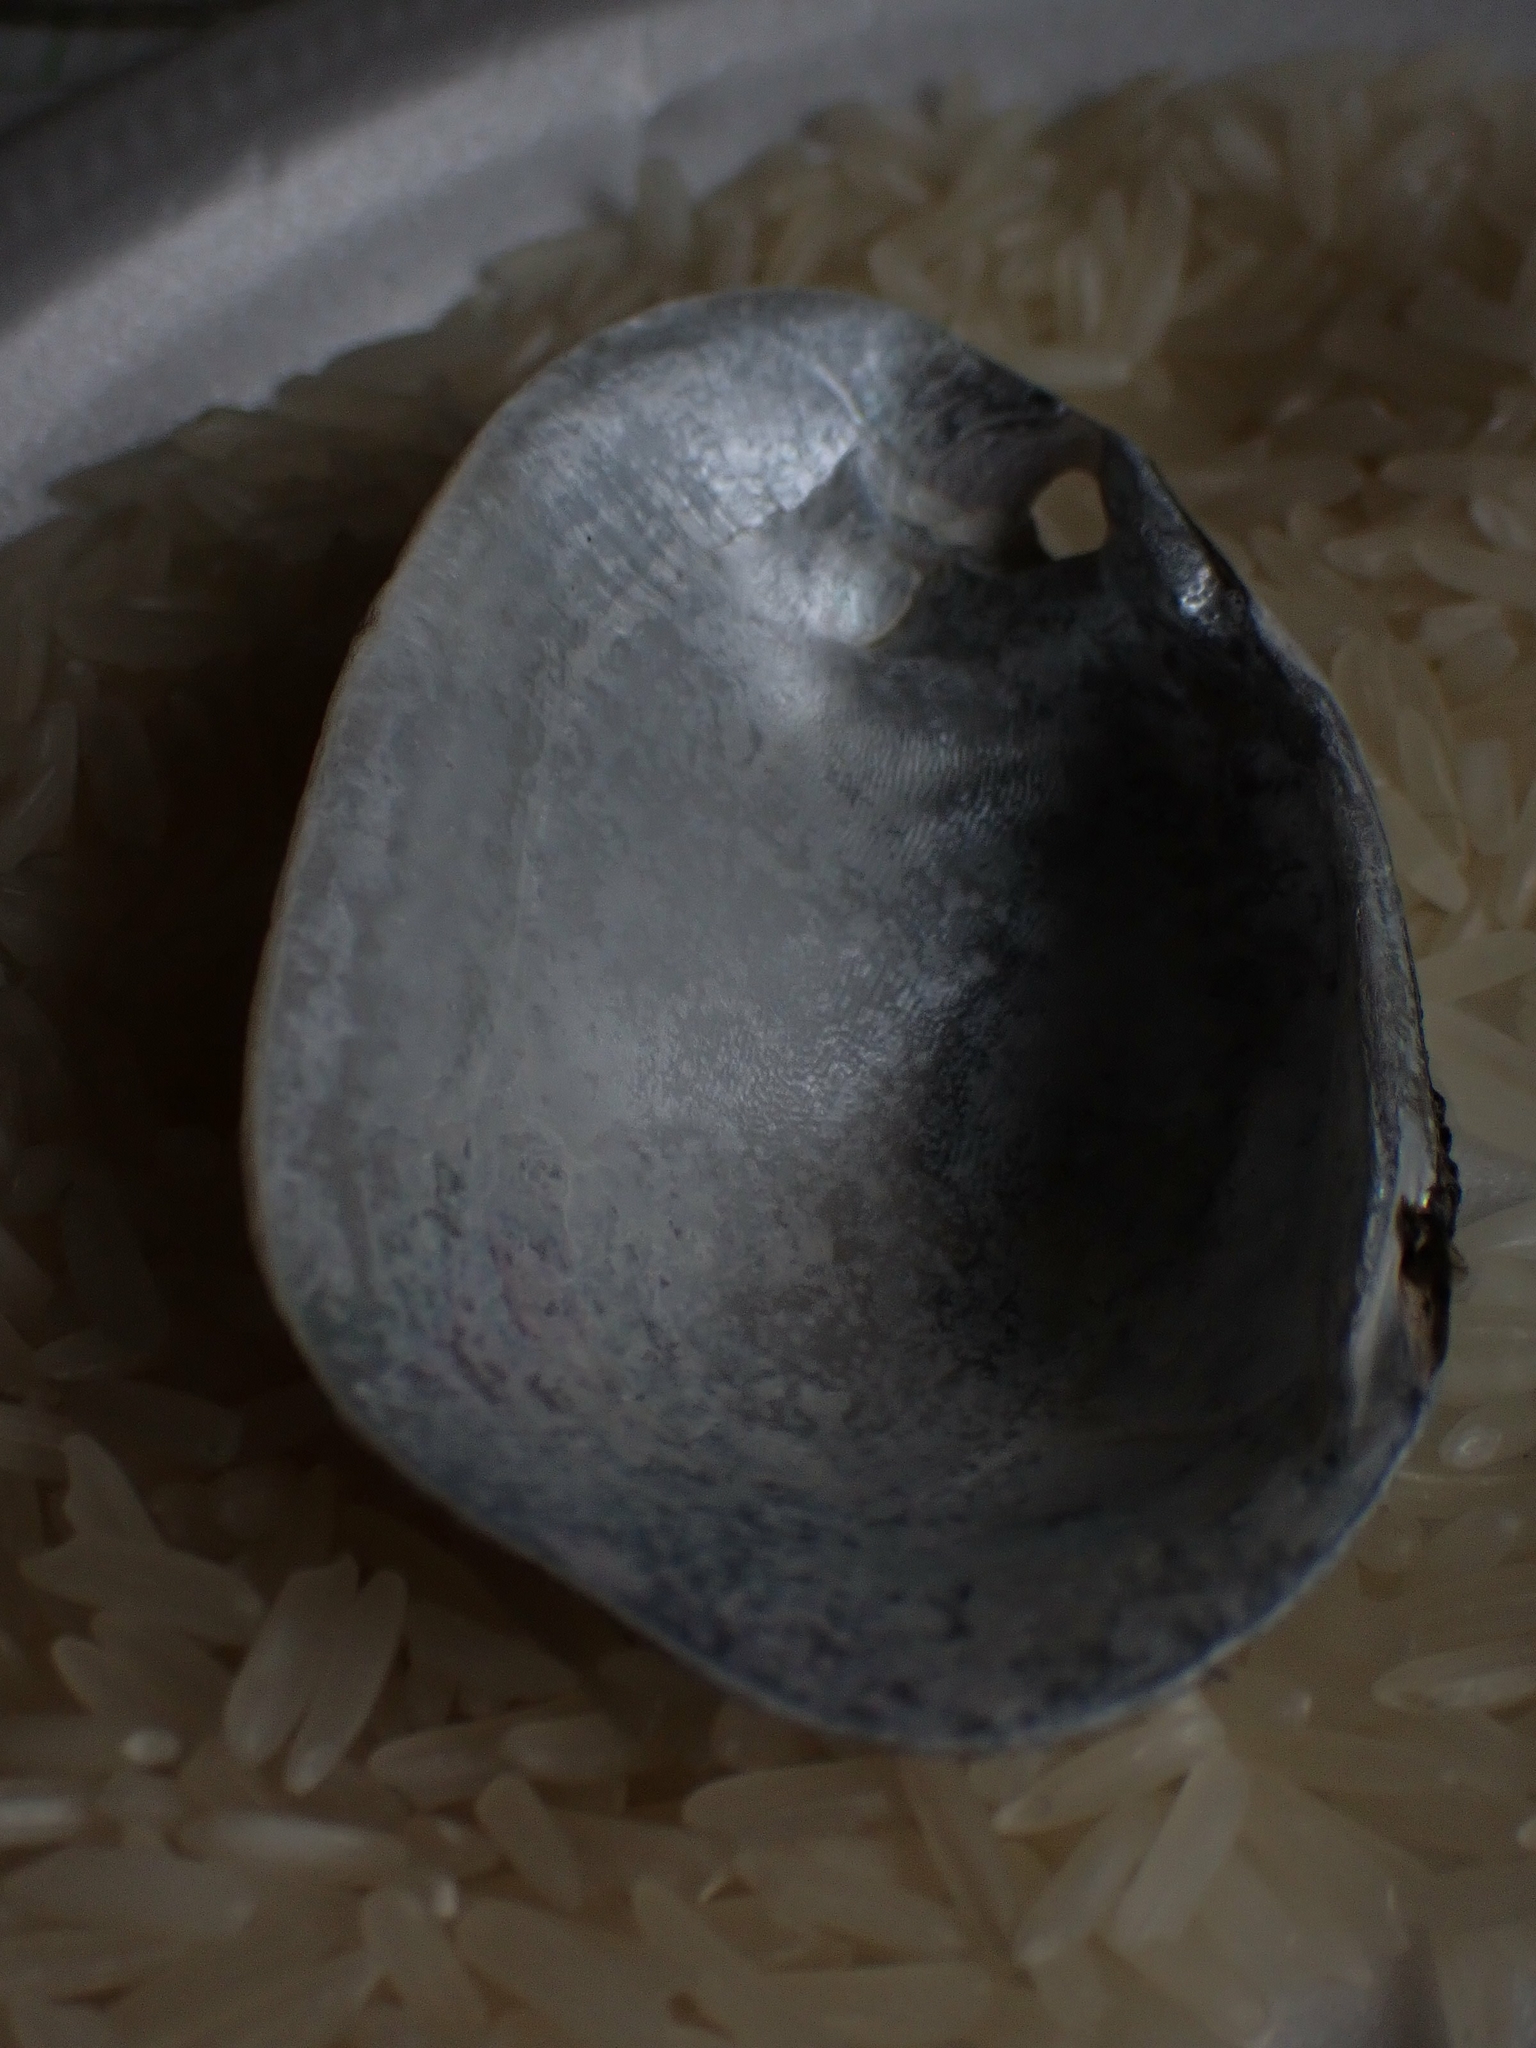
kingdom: Animalia
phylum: Mollusca
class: Bivalvia
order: Unionida
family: Unionidae
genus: Lampsilis
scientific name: Lampsilis siliquoidea
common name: Fatmucket
